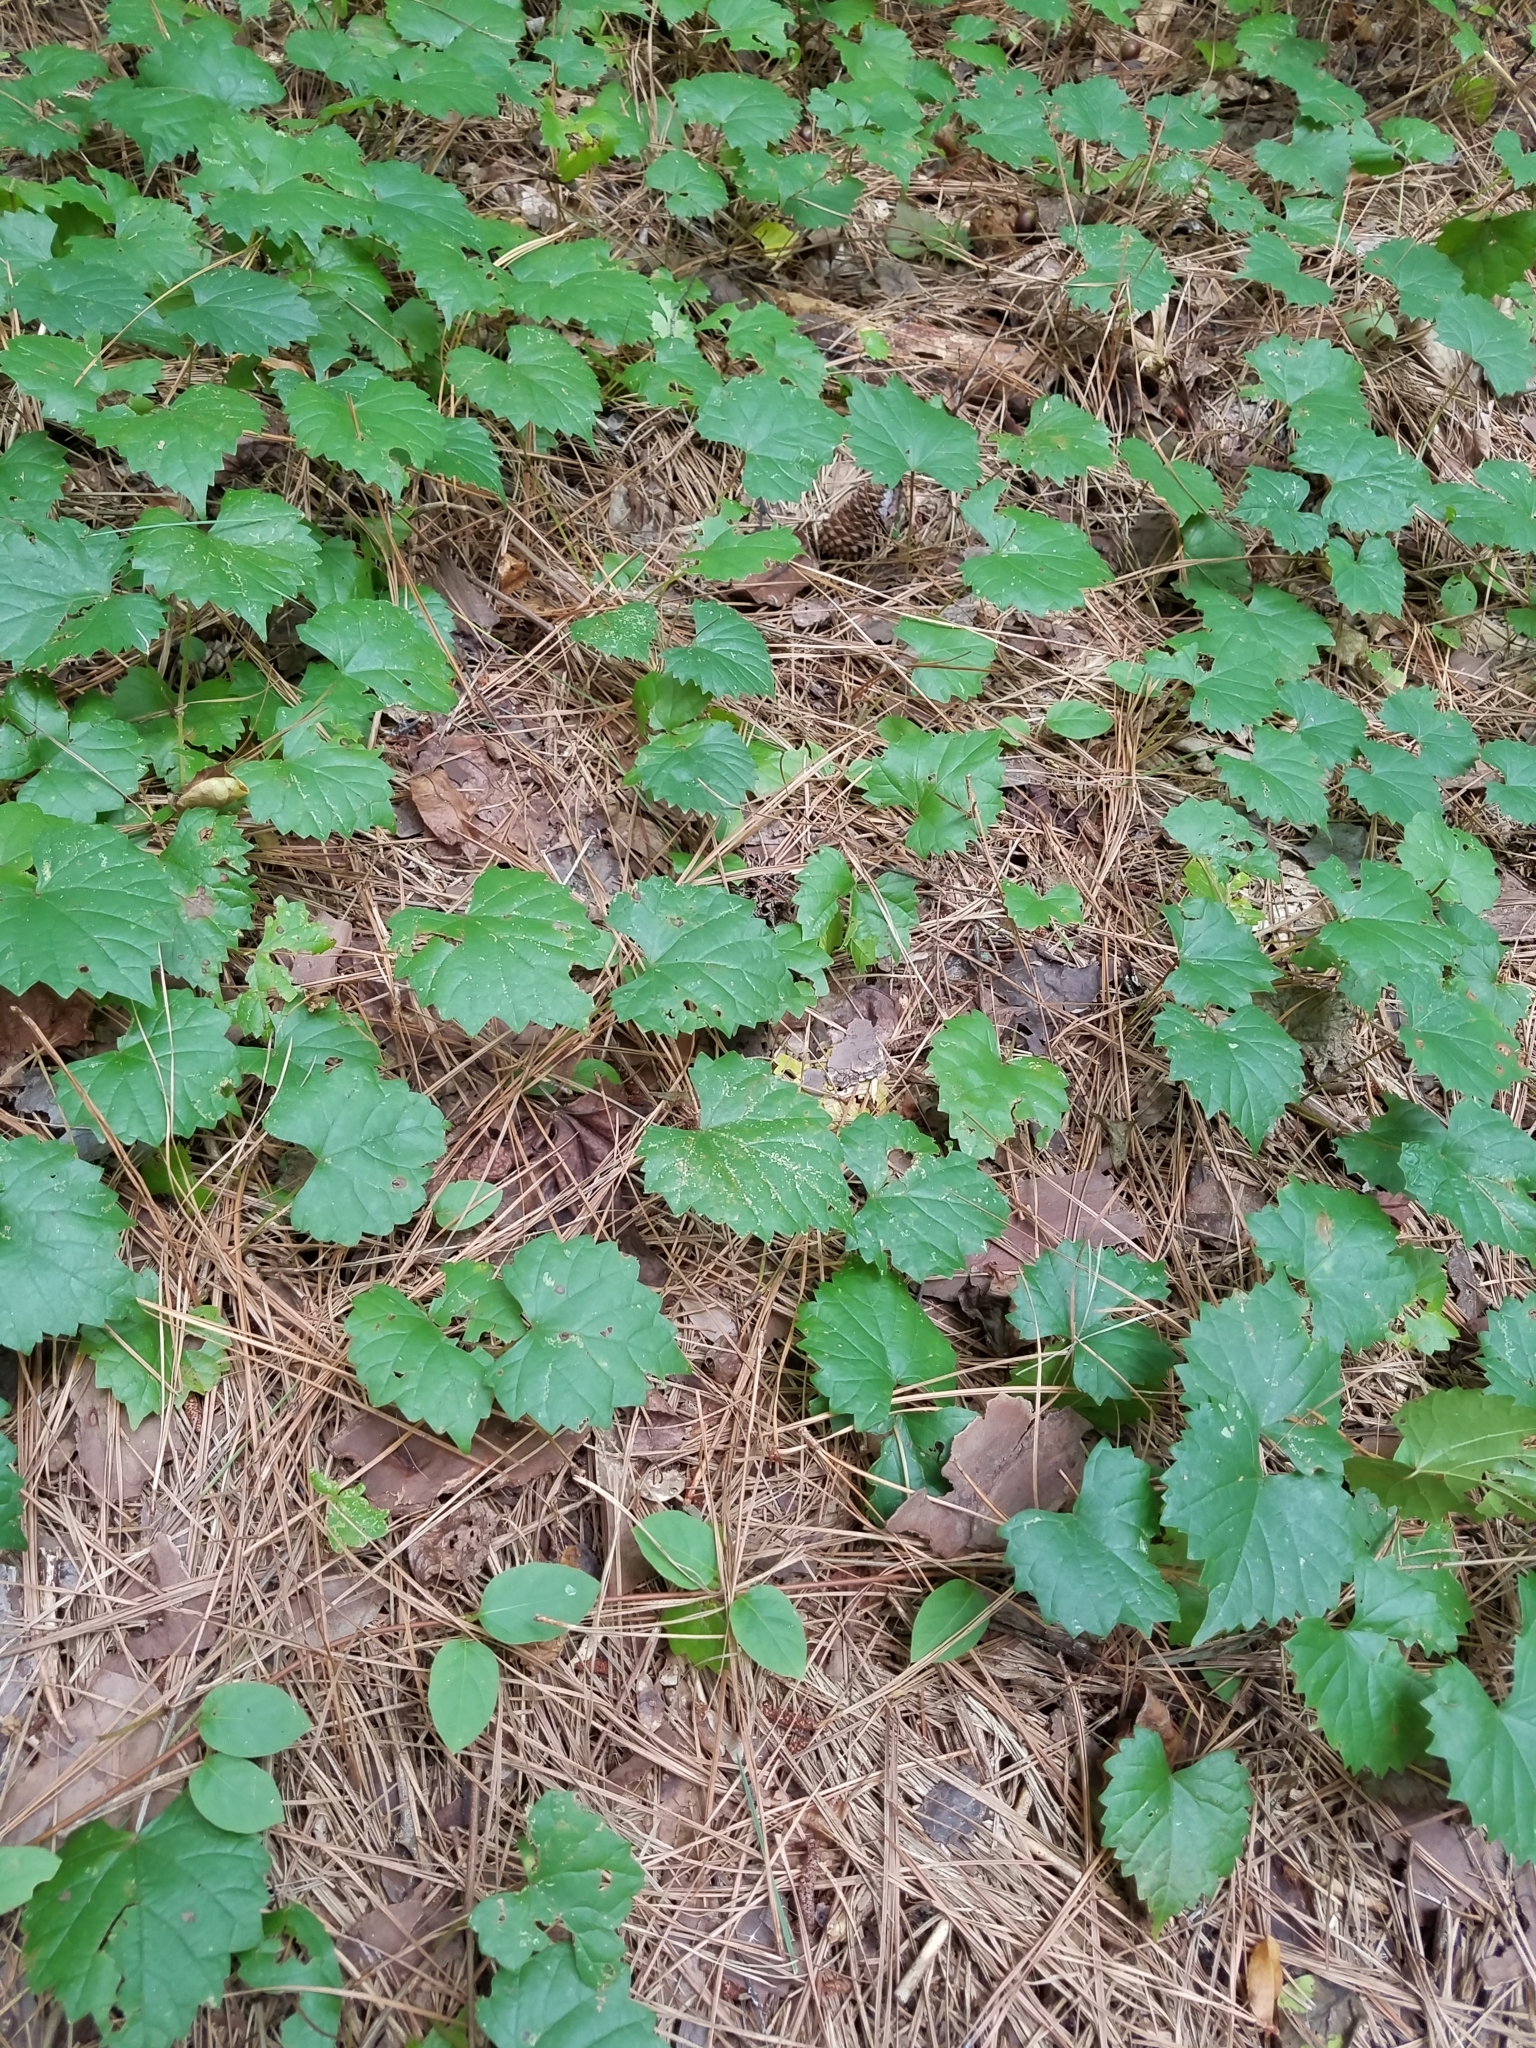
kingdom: Plantae
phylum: Tracheophyta
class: Magnoliopsida
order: Vitales
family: Vitaceae
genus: Vitis
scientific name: Vitis rotundifolia
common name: Muscadine grape
